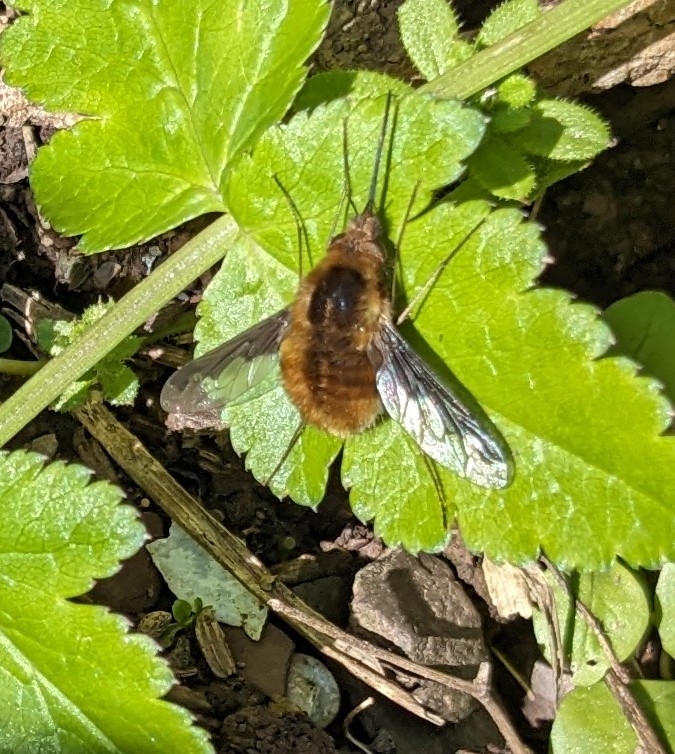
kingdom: Animalia
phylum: Arthropoda
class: Insecta
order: Diptera
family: Bombyliidae
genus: Bombylius
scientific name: Bombylius major
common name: Bee fly
